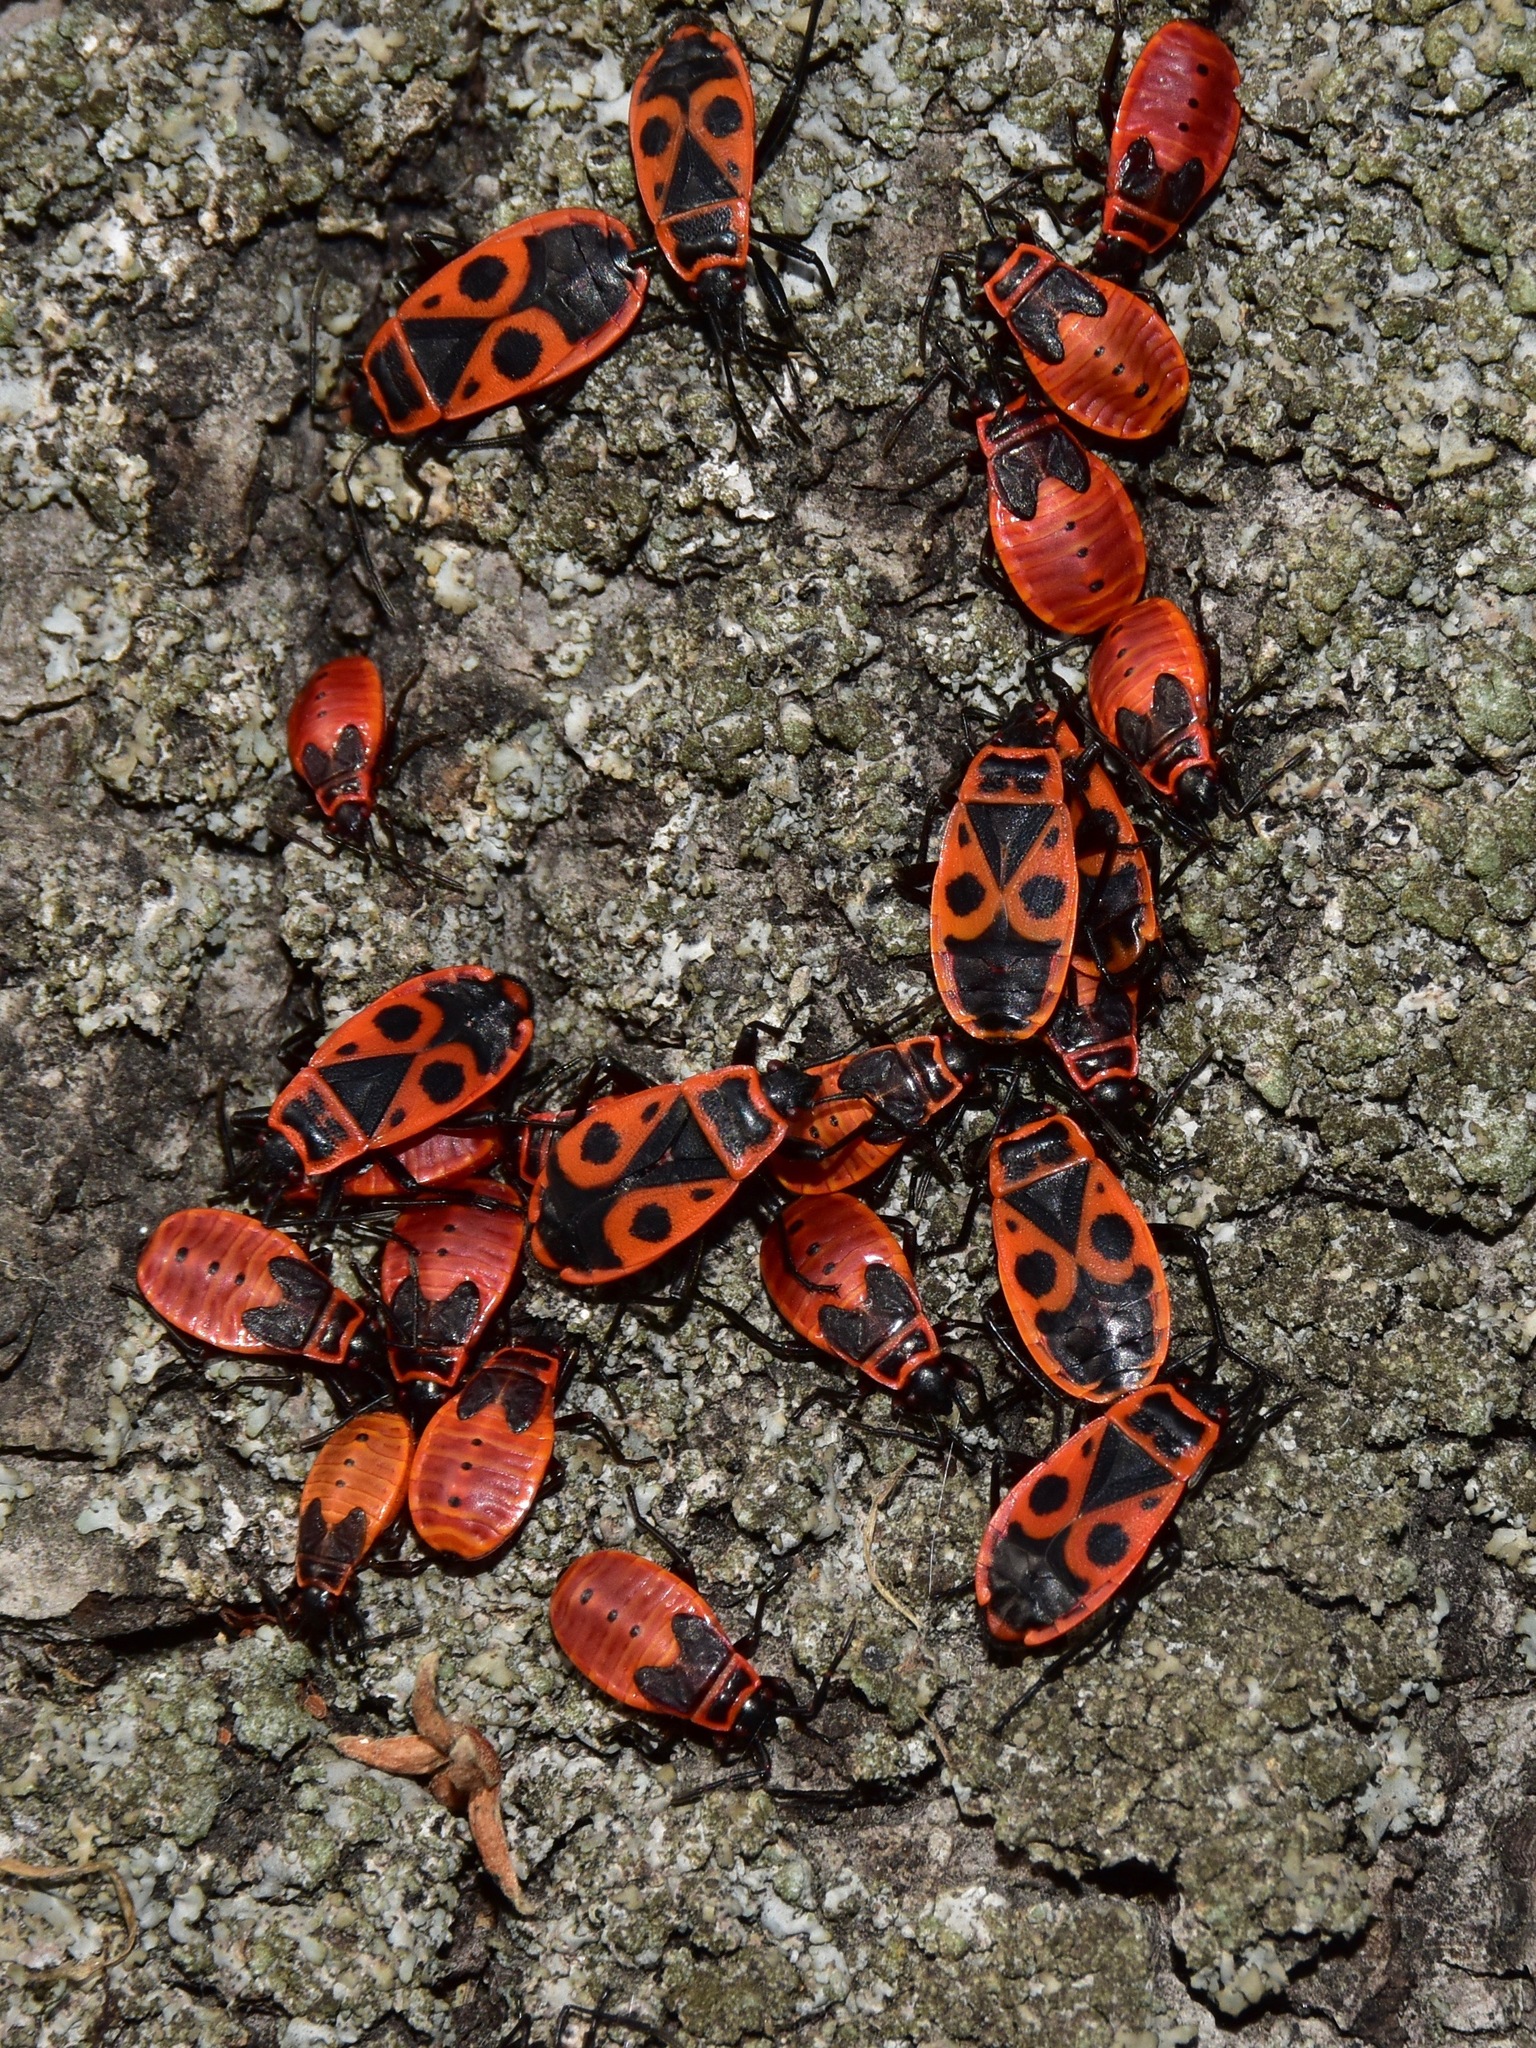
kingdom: Animalia
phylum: Arthropoda
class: Insecta
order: Hemiptera
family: Pyrrhocoridae
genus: Pyrrhocoris
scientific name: Pyrrhocoris apterus
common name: Firebug
